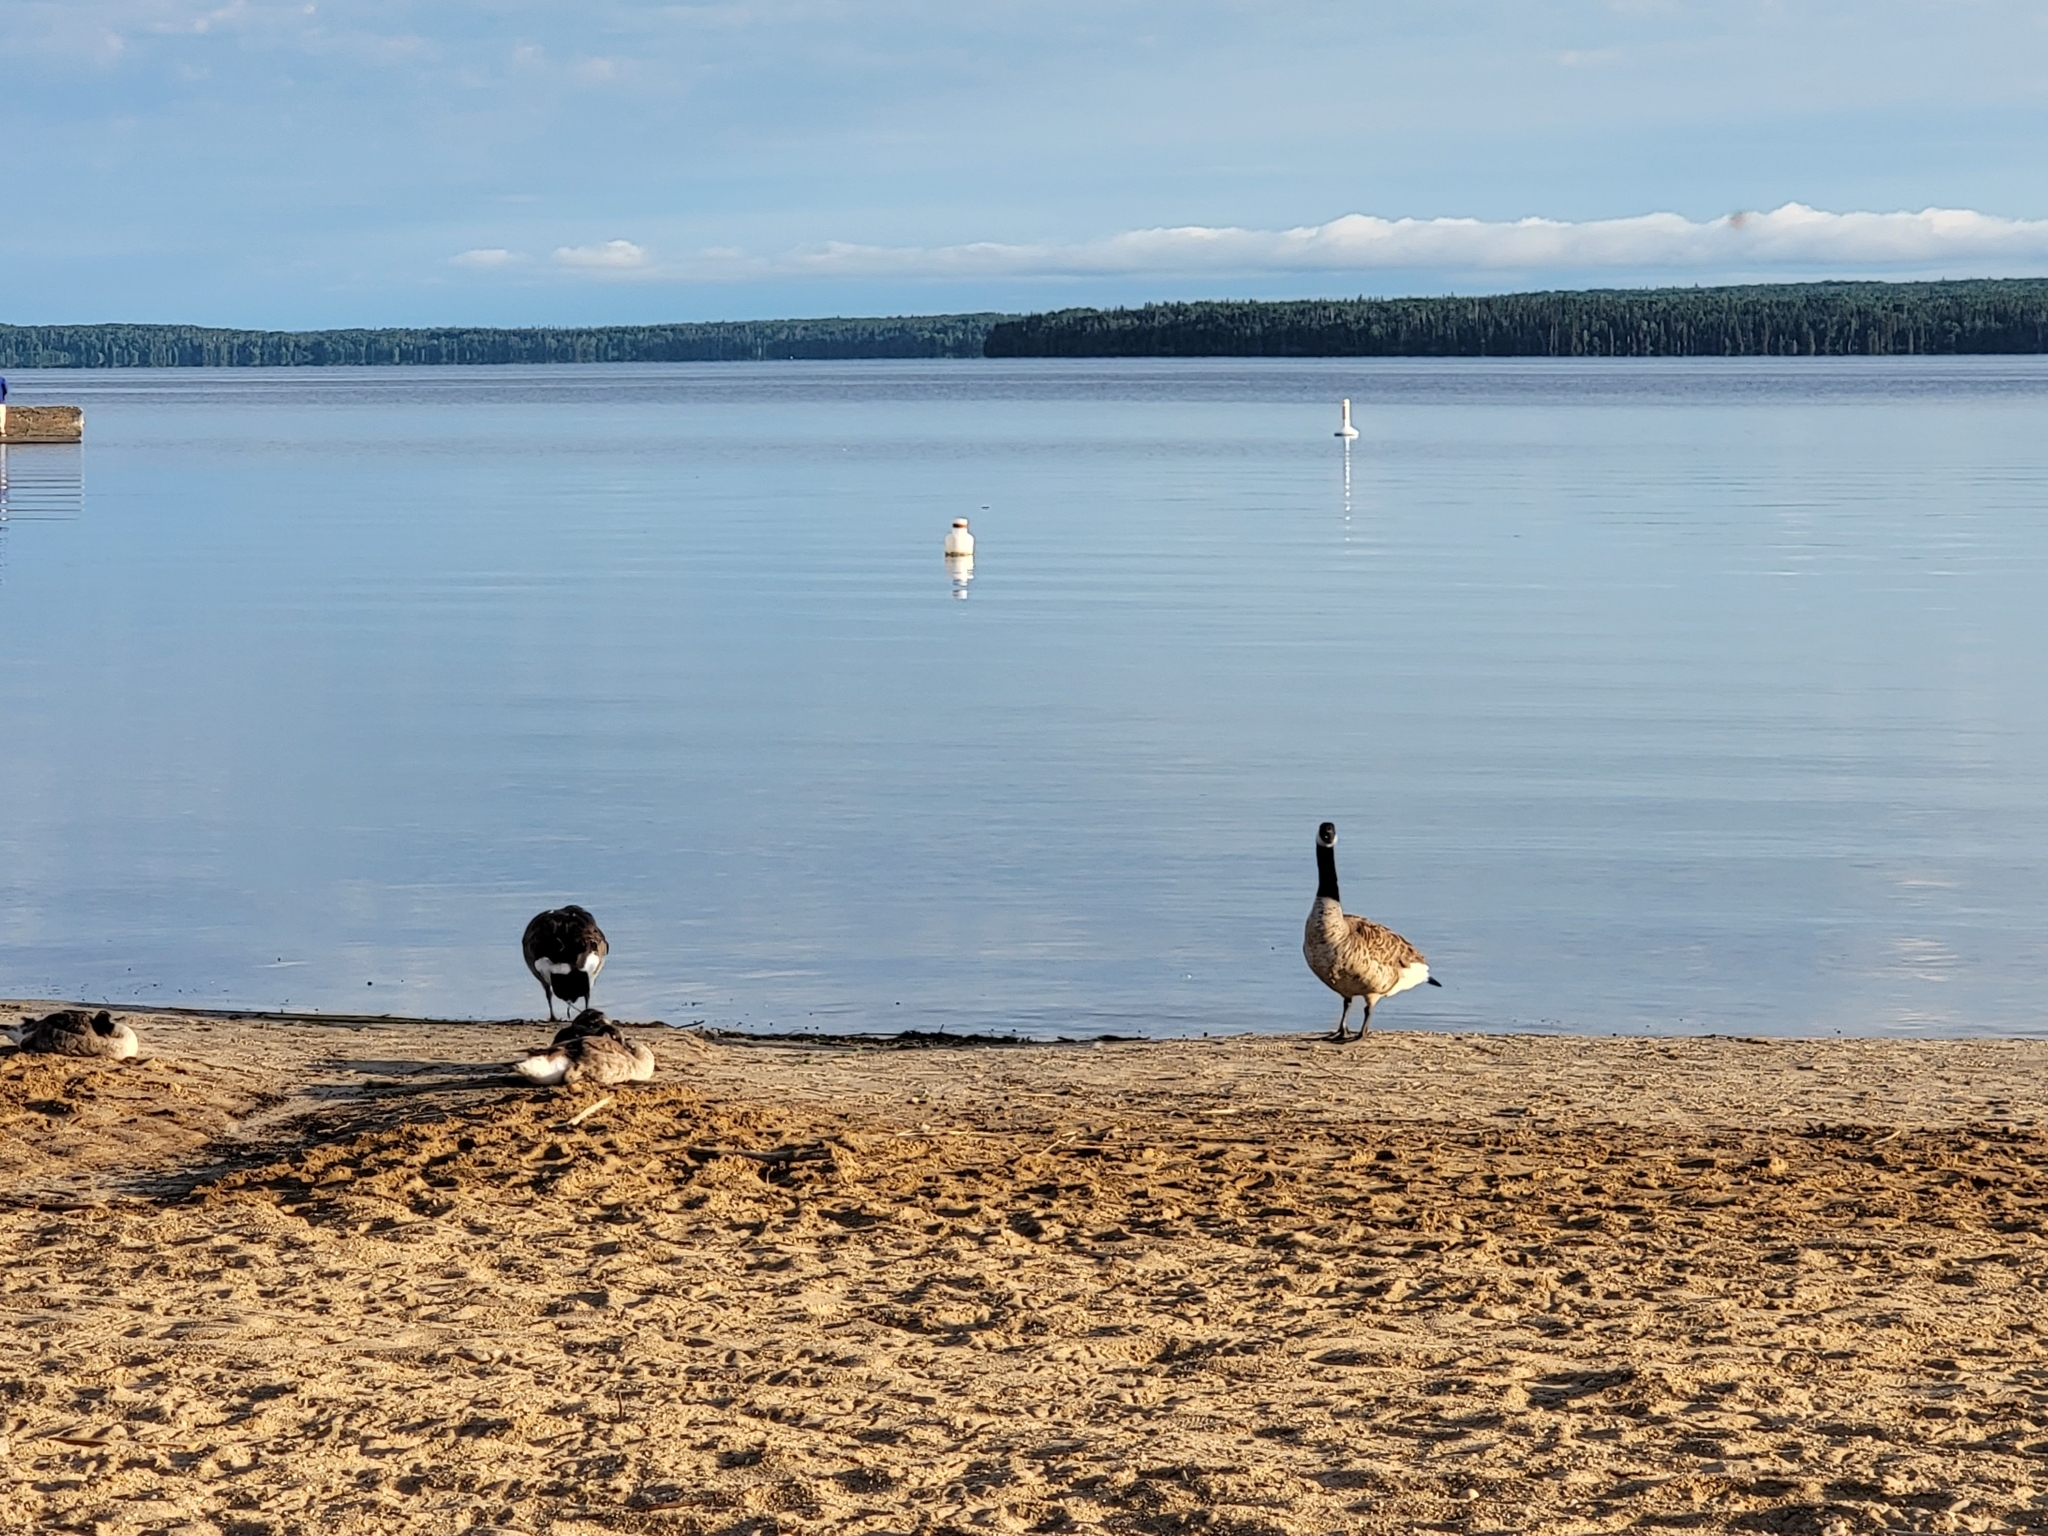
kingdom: Animalia
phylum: Chordata
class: Aves
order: Anseriformes
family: Anatidae
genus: Branta
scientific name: Branta canadensis
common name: Canada goose
